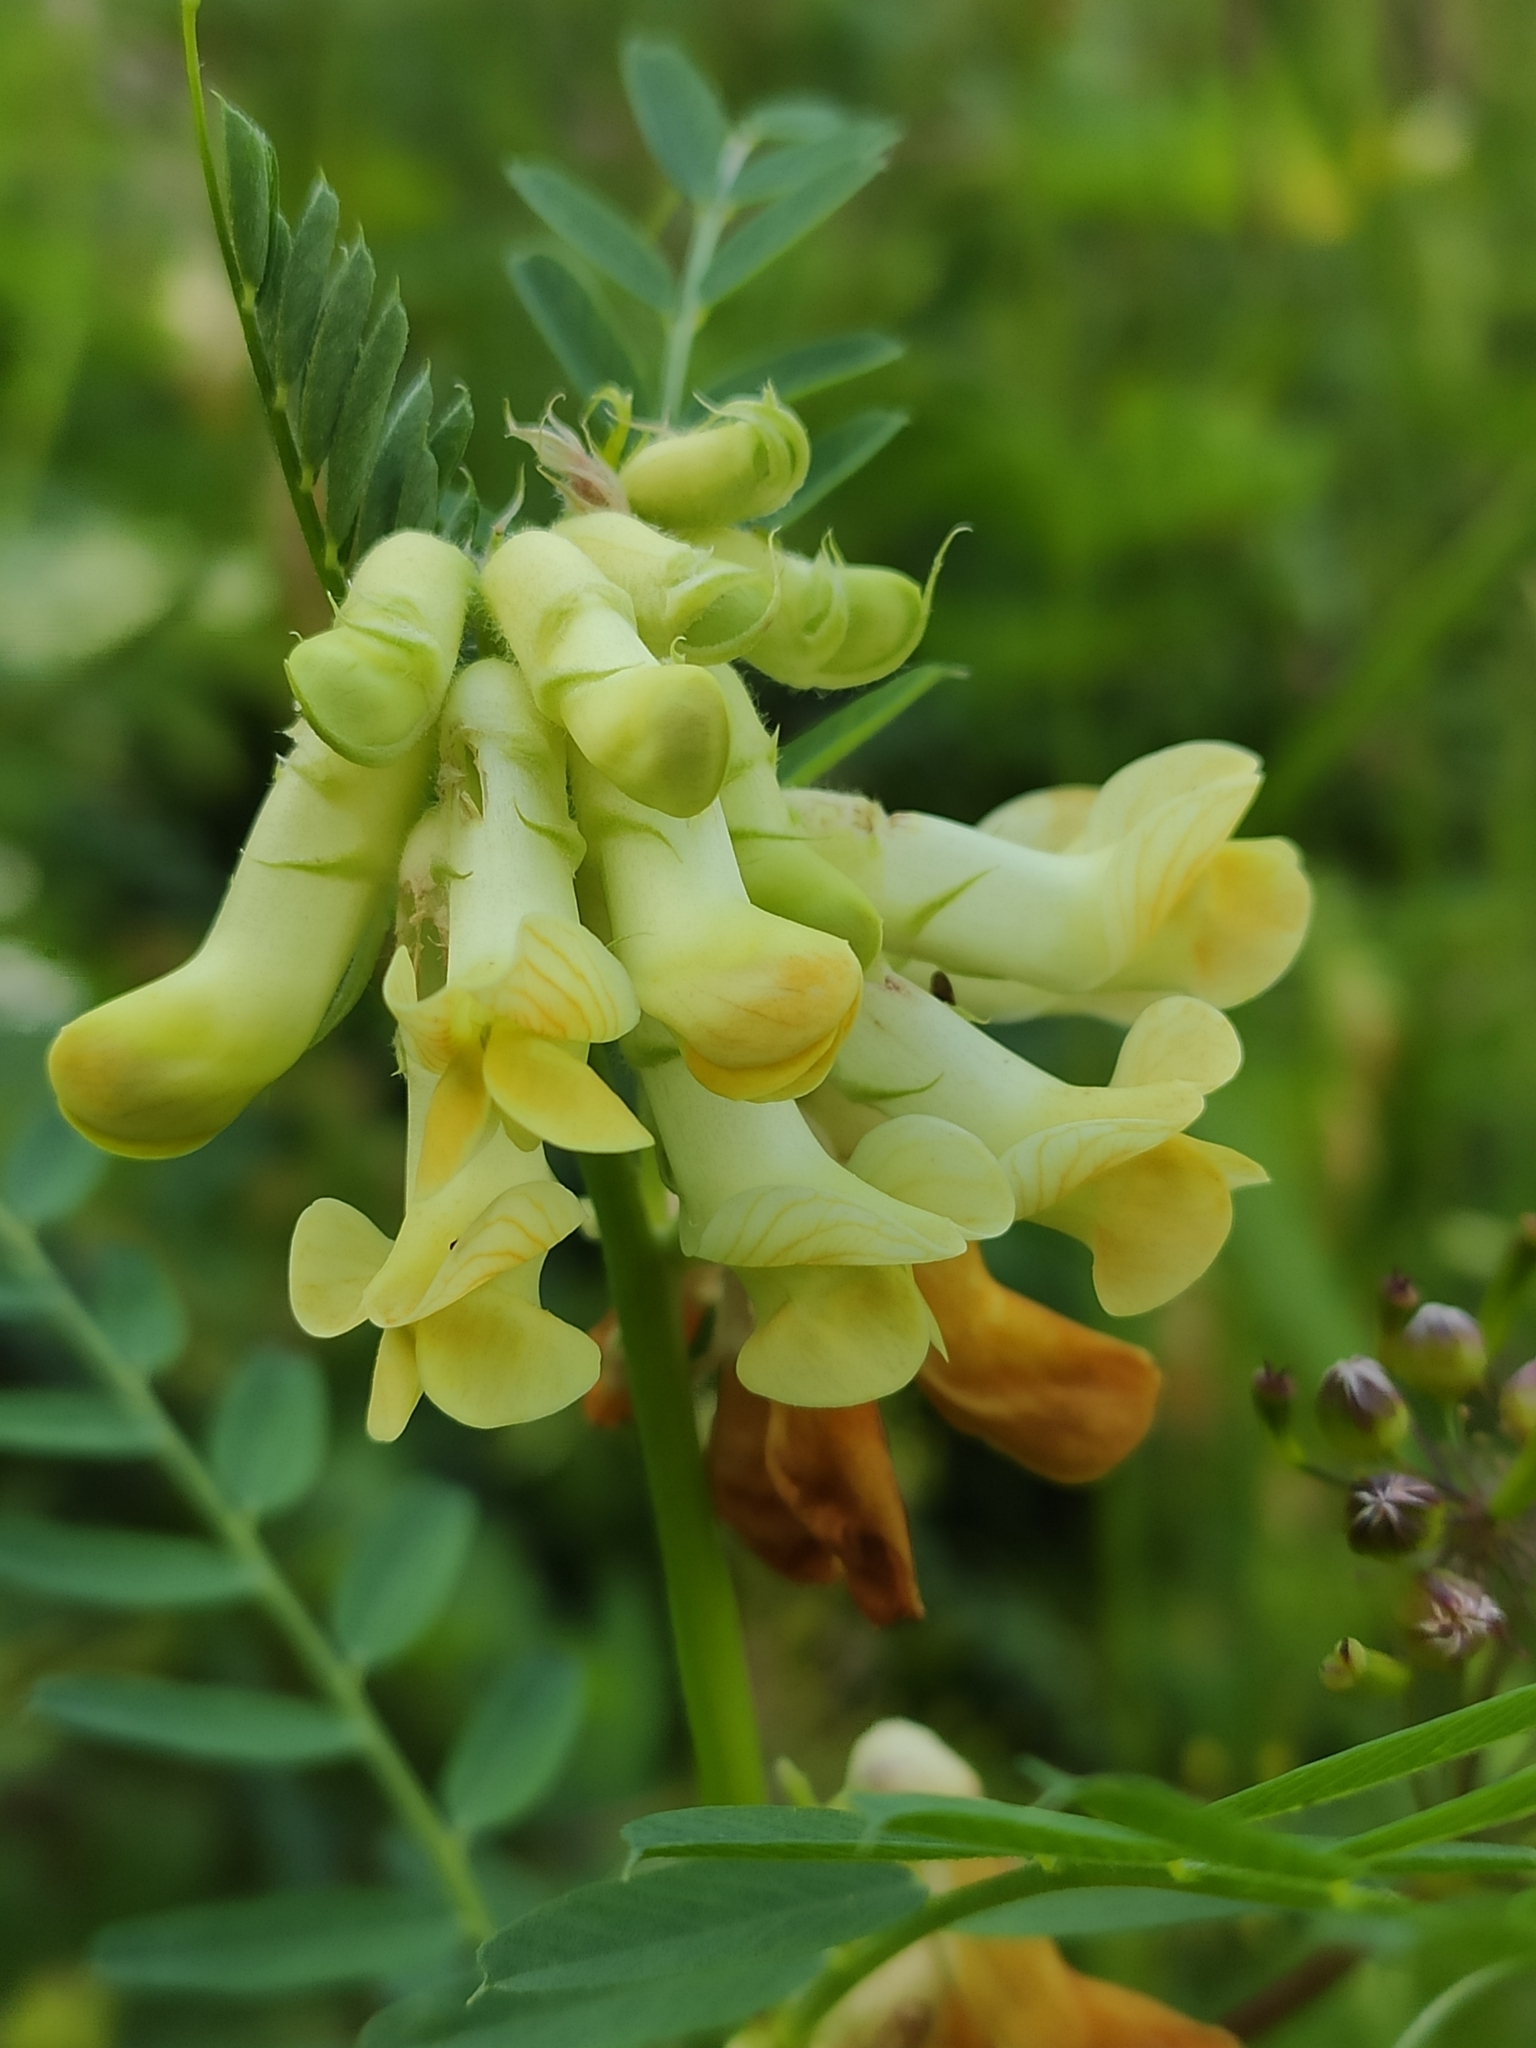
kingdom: Plantae
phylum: Tracheophyta
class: Magnoliopsida
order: Fabales
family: Fabaceae
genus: Vicia
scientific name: Vicia balansae
